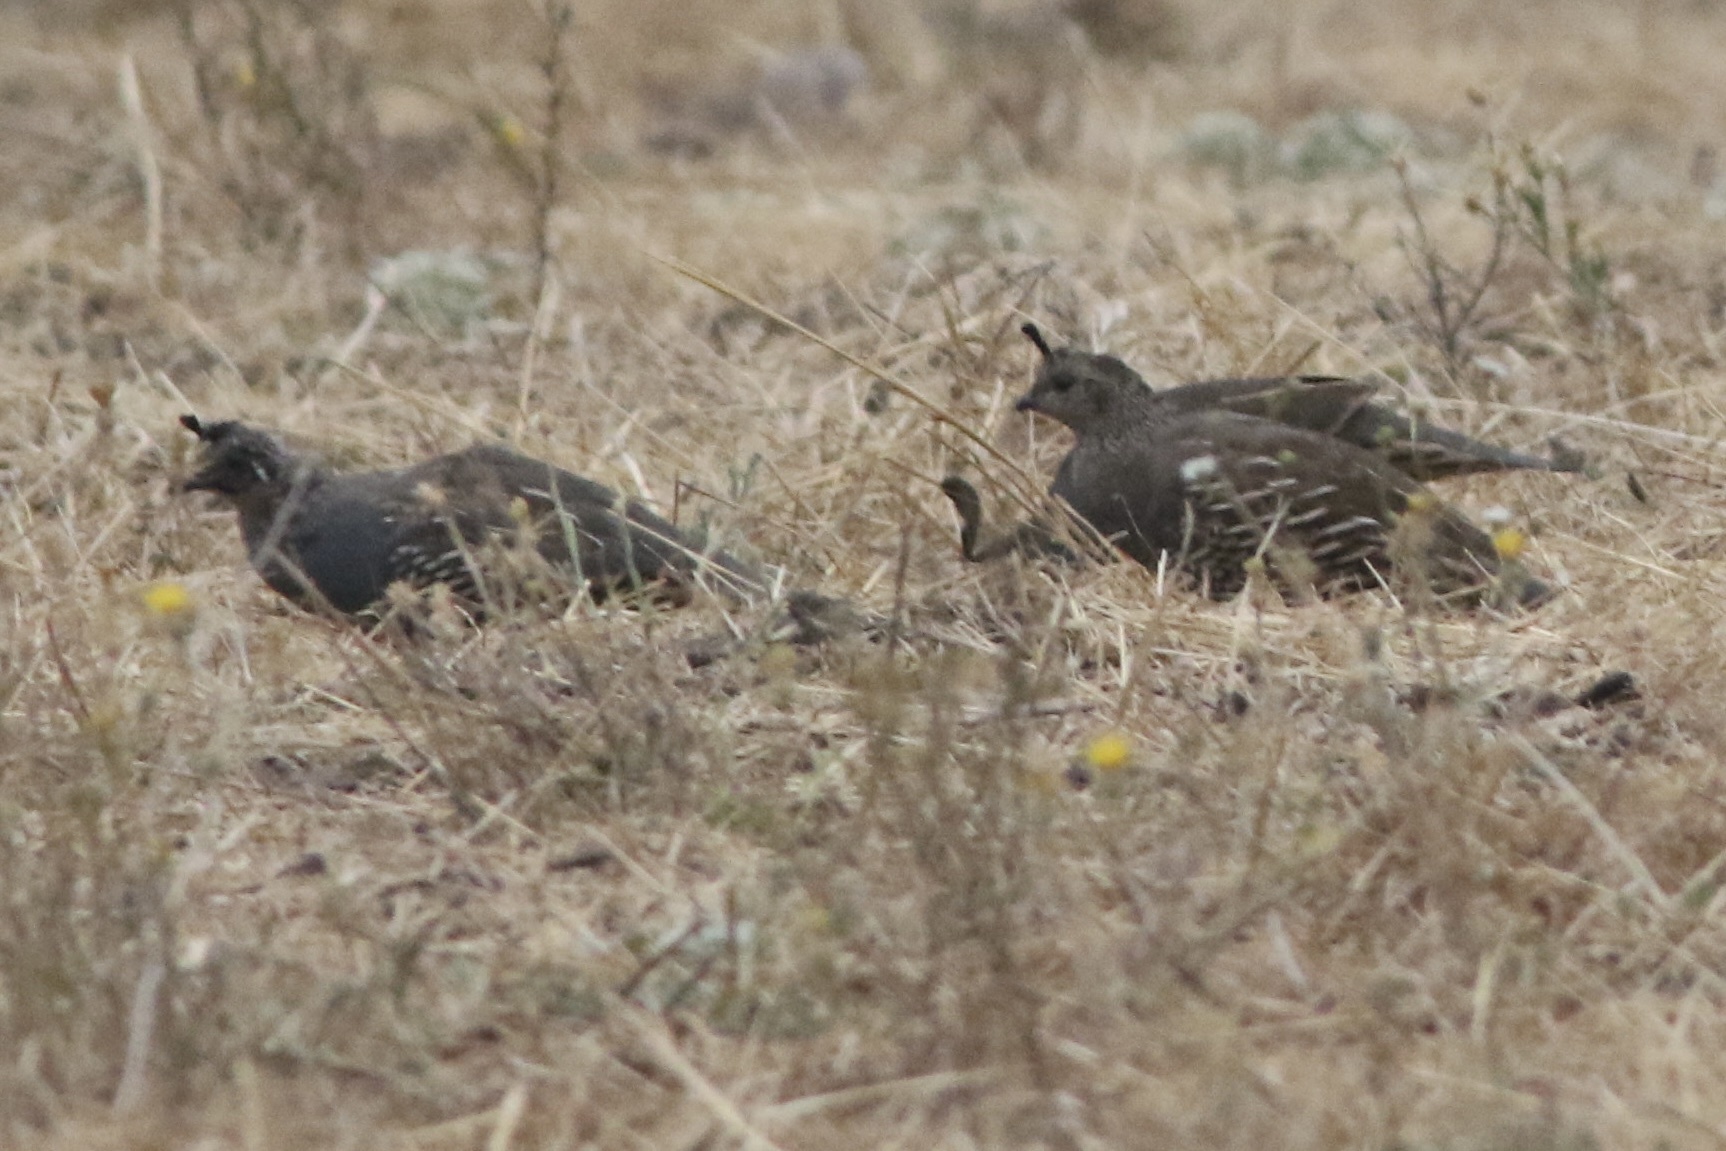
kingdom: Animalia
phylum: Chordata
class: Aves
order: Galliformes
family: Odontophoridae
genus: Callipepla
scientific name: Callipepla californica
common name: California quail
